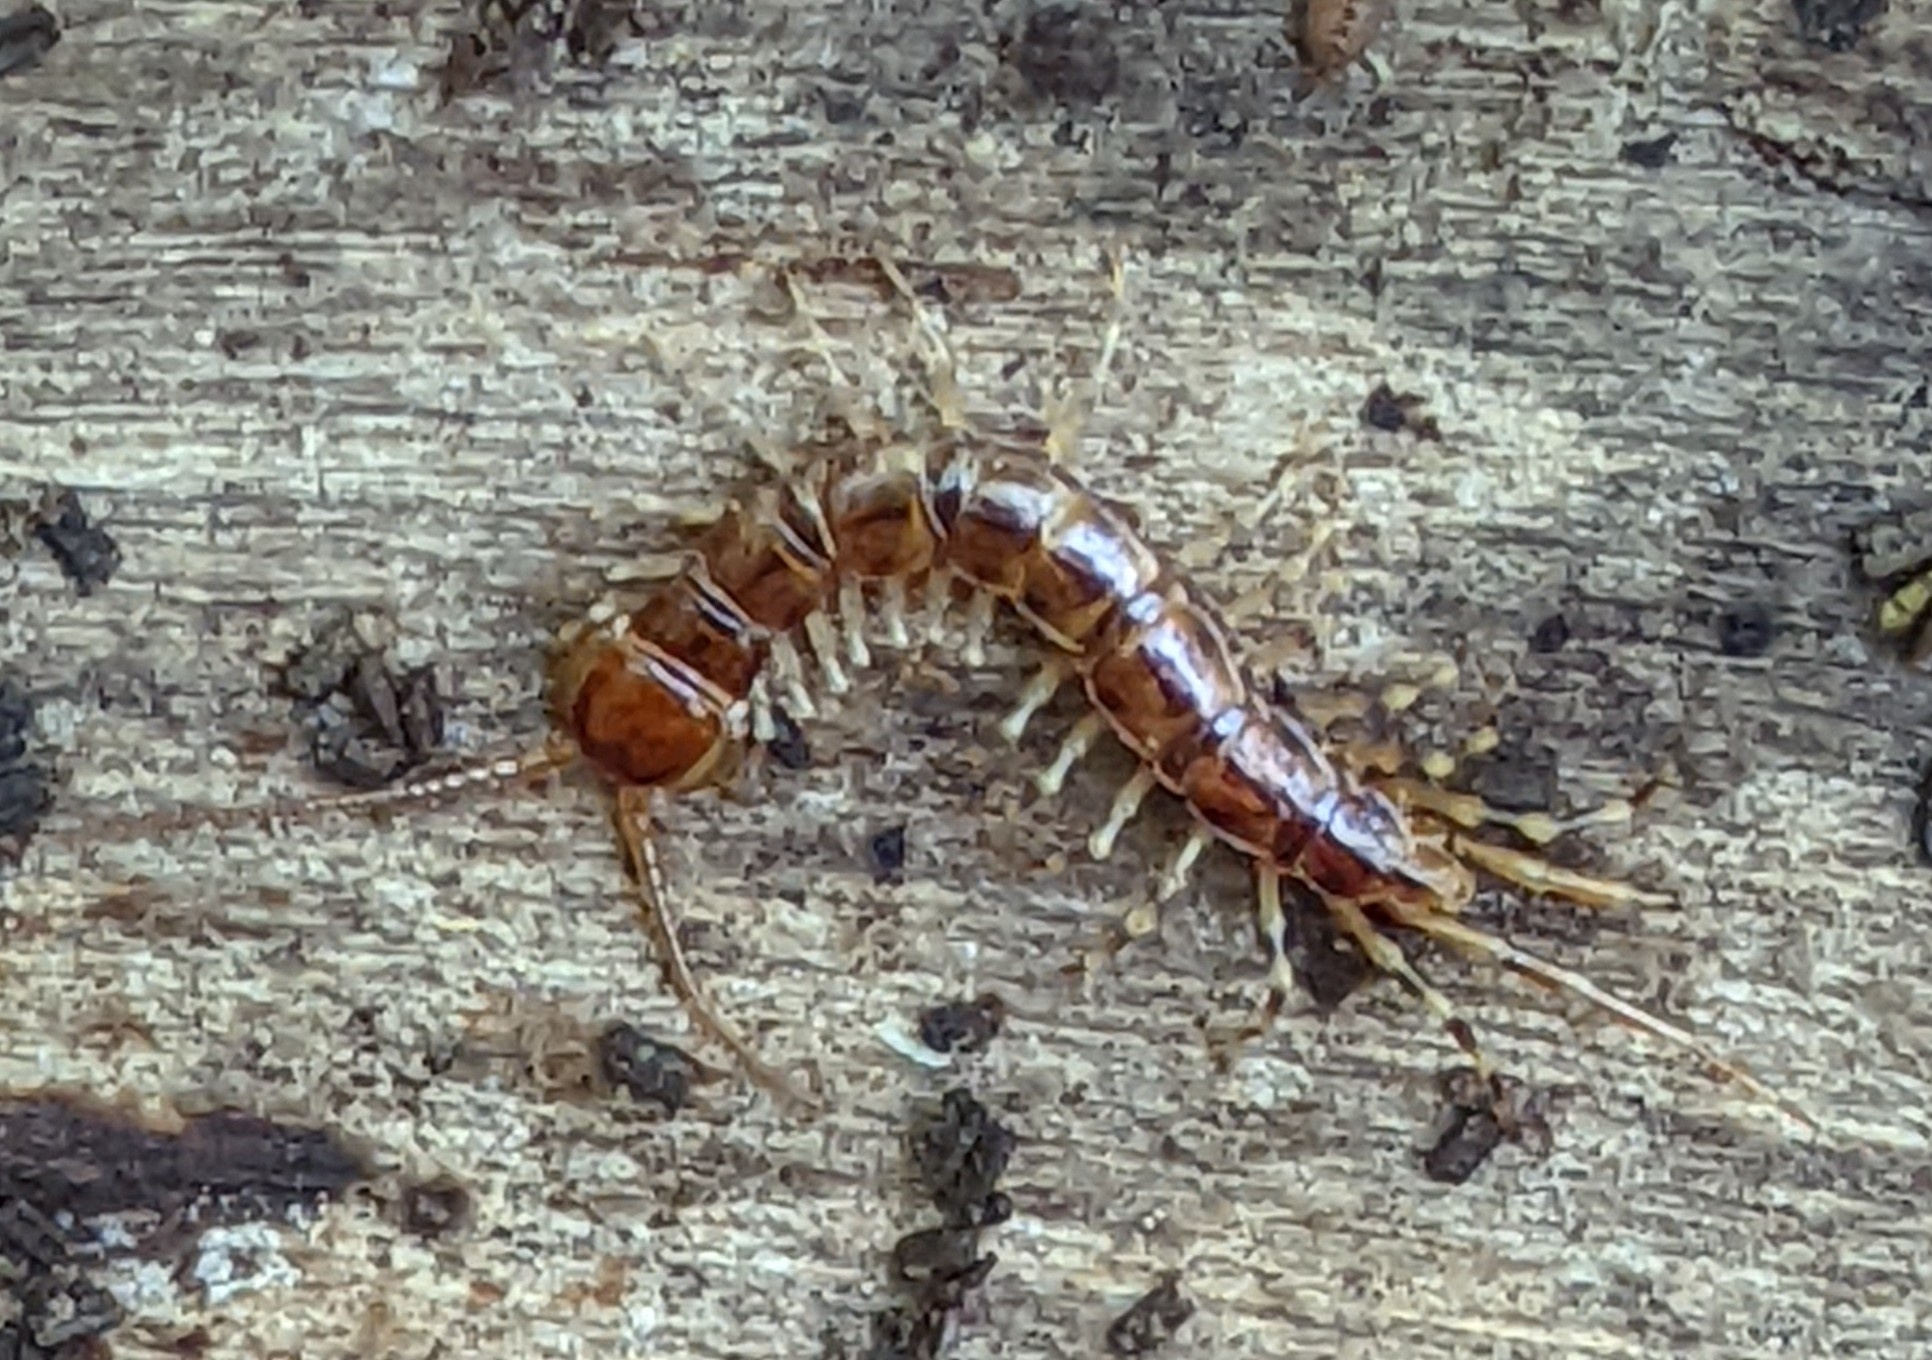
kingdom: Animalia
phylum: Arthropoda
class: Chilopoda
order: Lithobiomorpha
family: Lithobiidae
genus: Lithobius
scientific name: Lithobius variegatus
